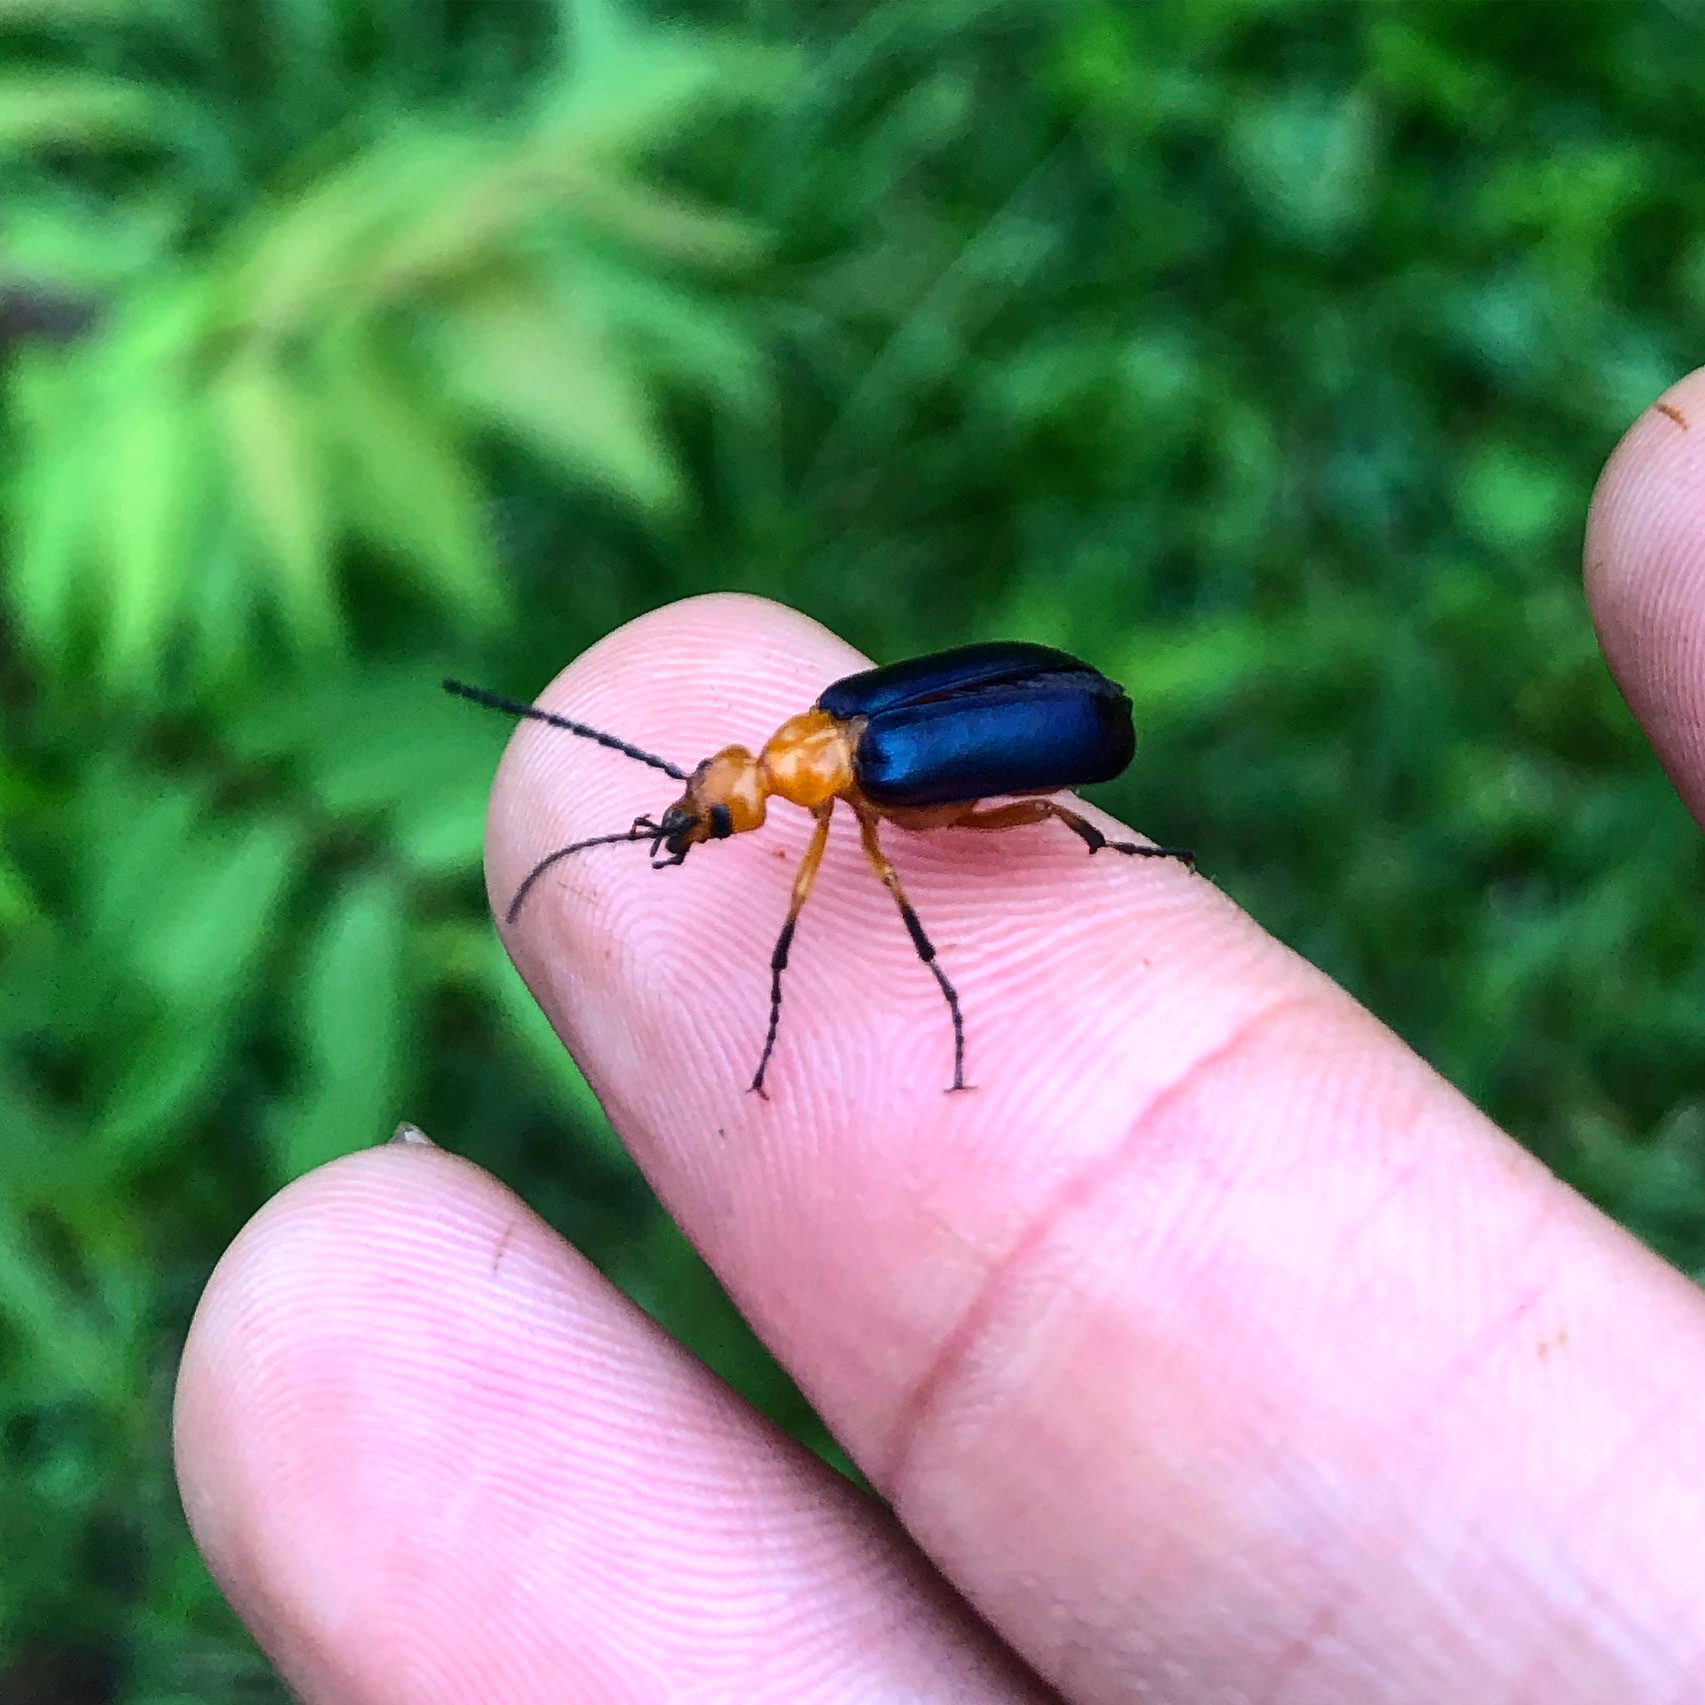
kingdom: Animalia
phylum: Arthropoda
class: Insecta
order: Coleoptera
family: Meloidae
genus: Zonitis
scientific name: Zonitis
